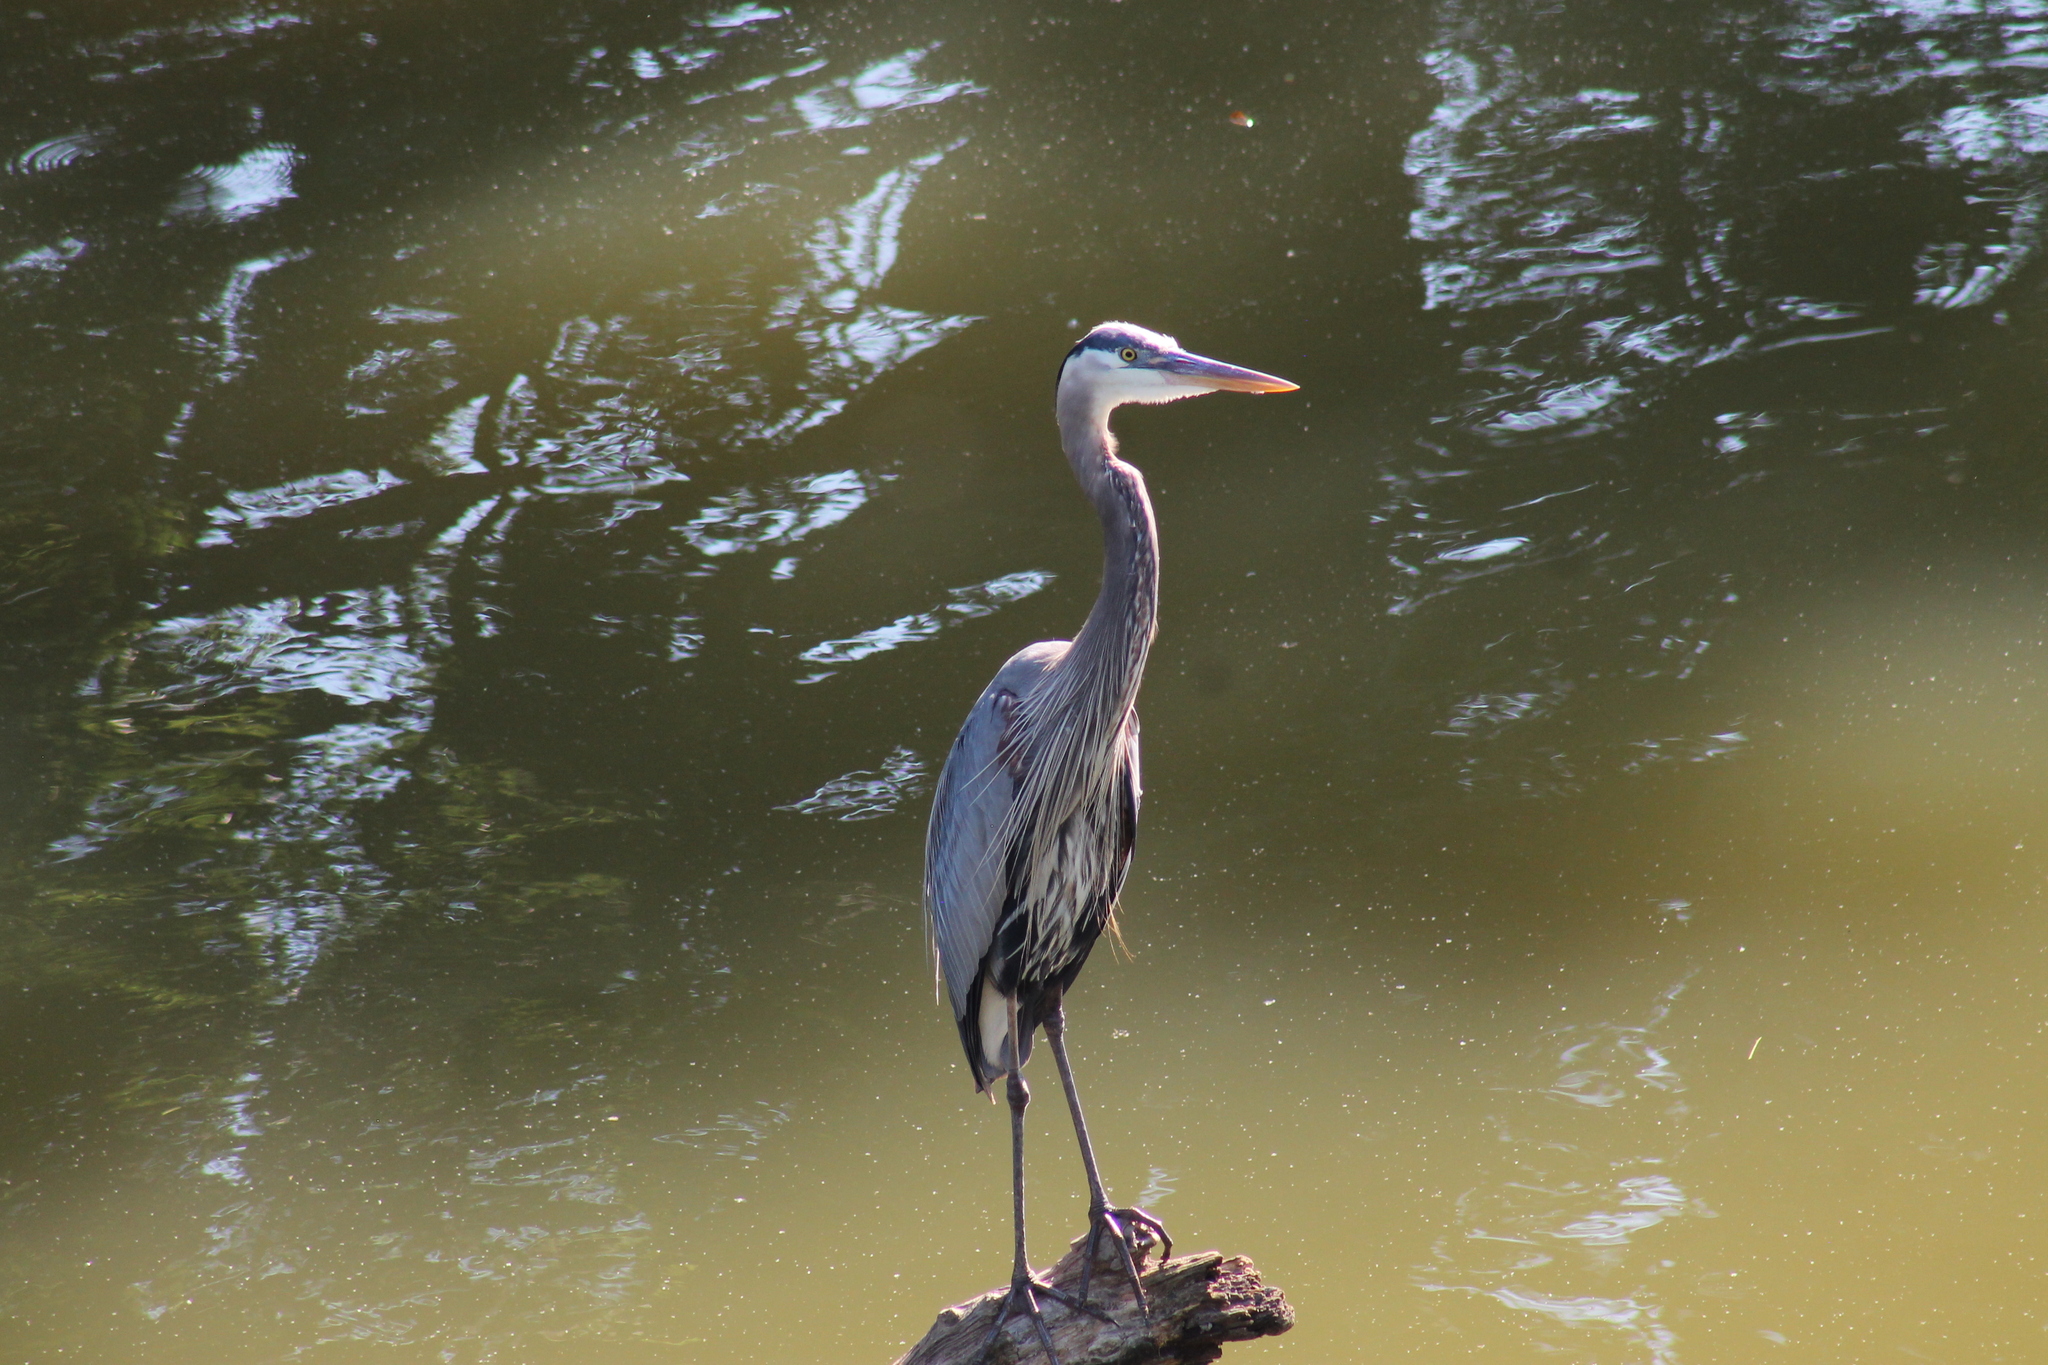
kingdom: Animalia
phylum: Chordata
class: Aves
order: Pelecaniformes
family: Ardeidae
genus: Ardea
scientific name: Ardea herodias
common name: Great blue heron
